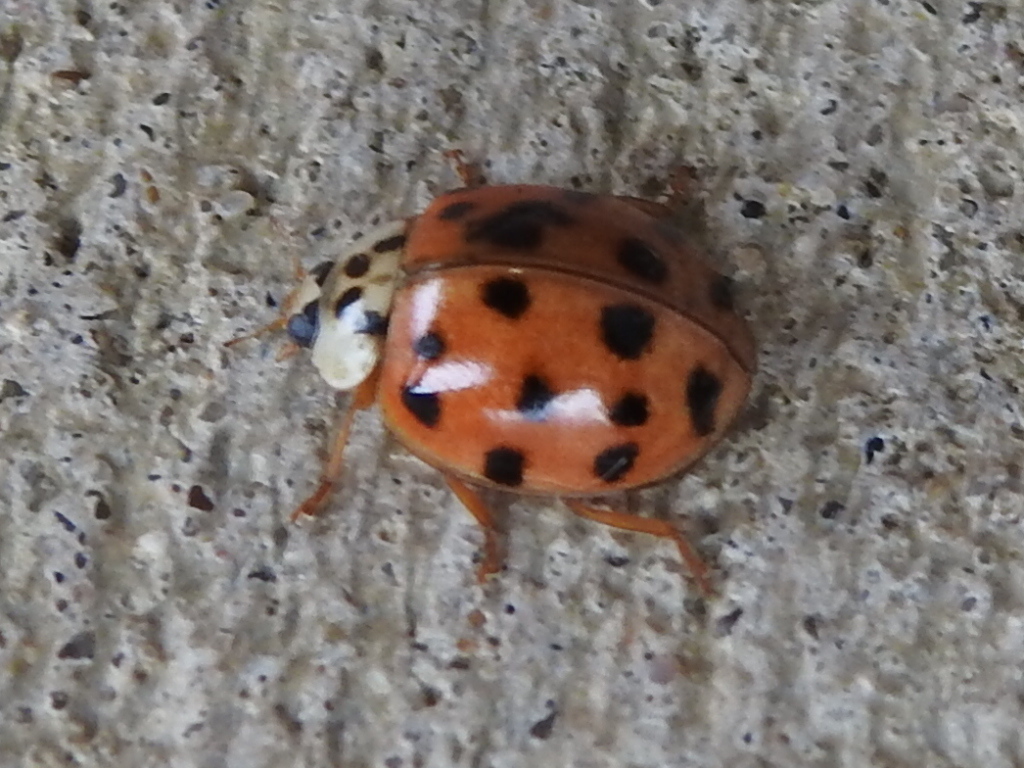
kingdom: Animalia
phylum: Arthropoda
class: Insecta
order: Coleoptera
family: Coccinellidae
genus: Harmonia
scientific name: Harmonia axyridis
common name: Harlequin ladybird
